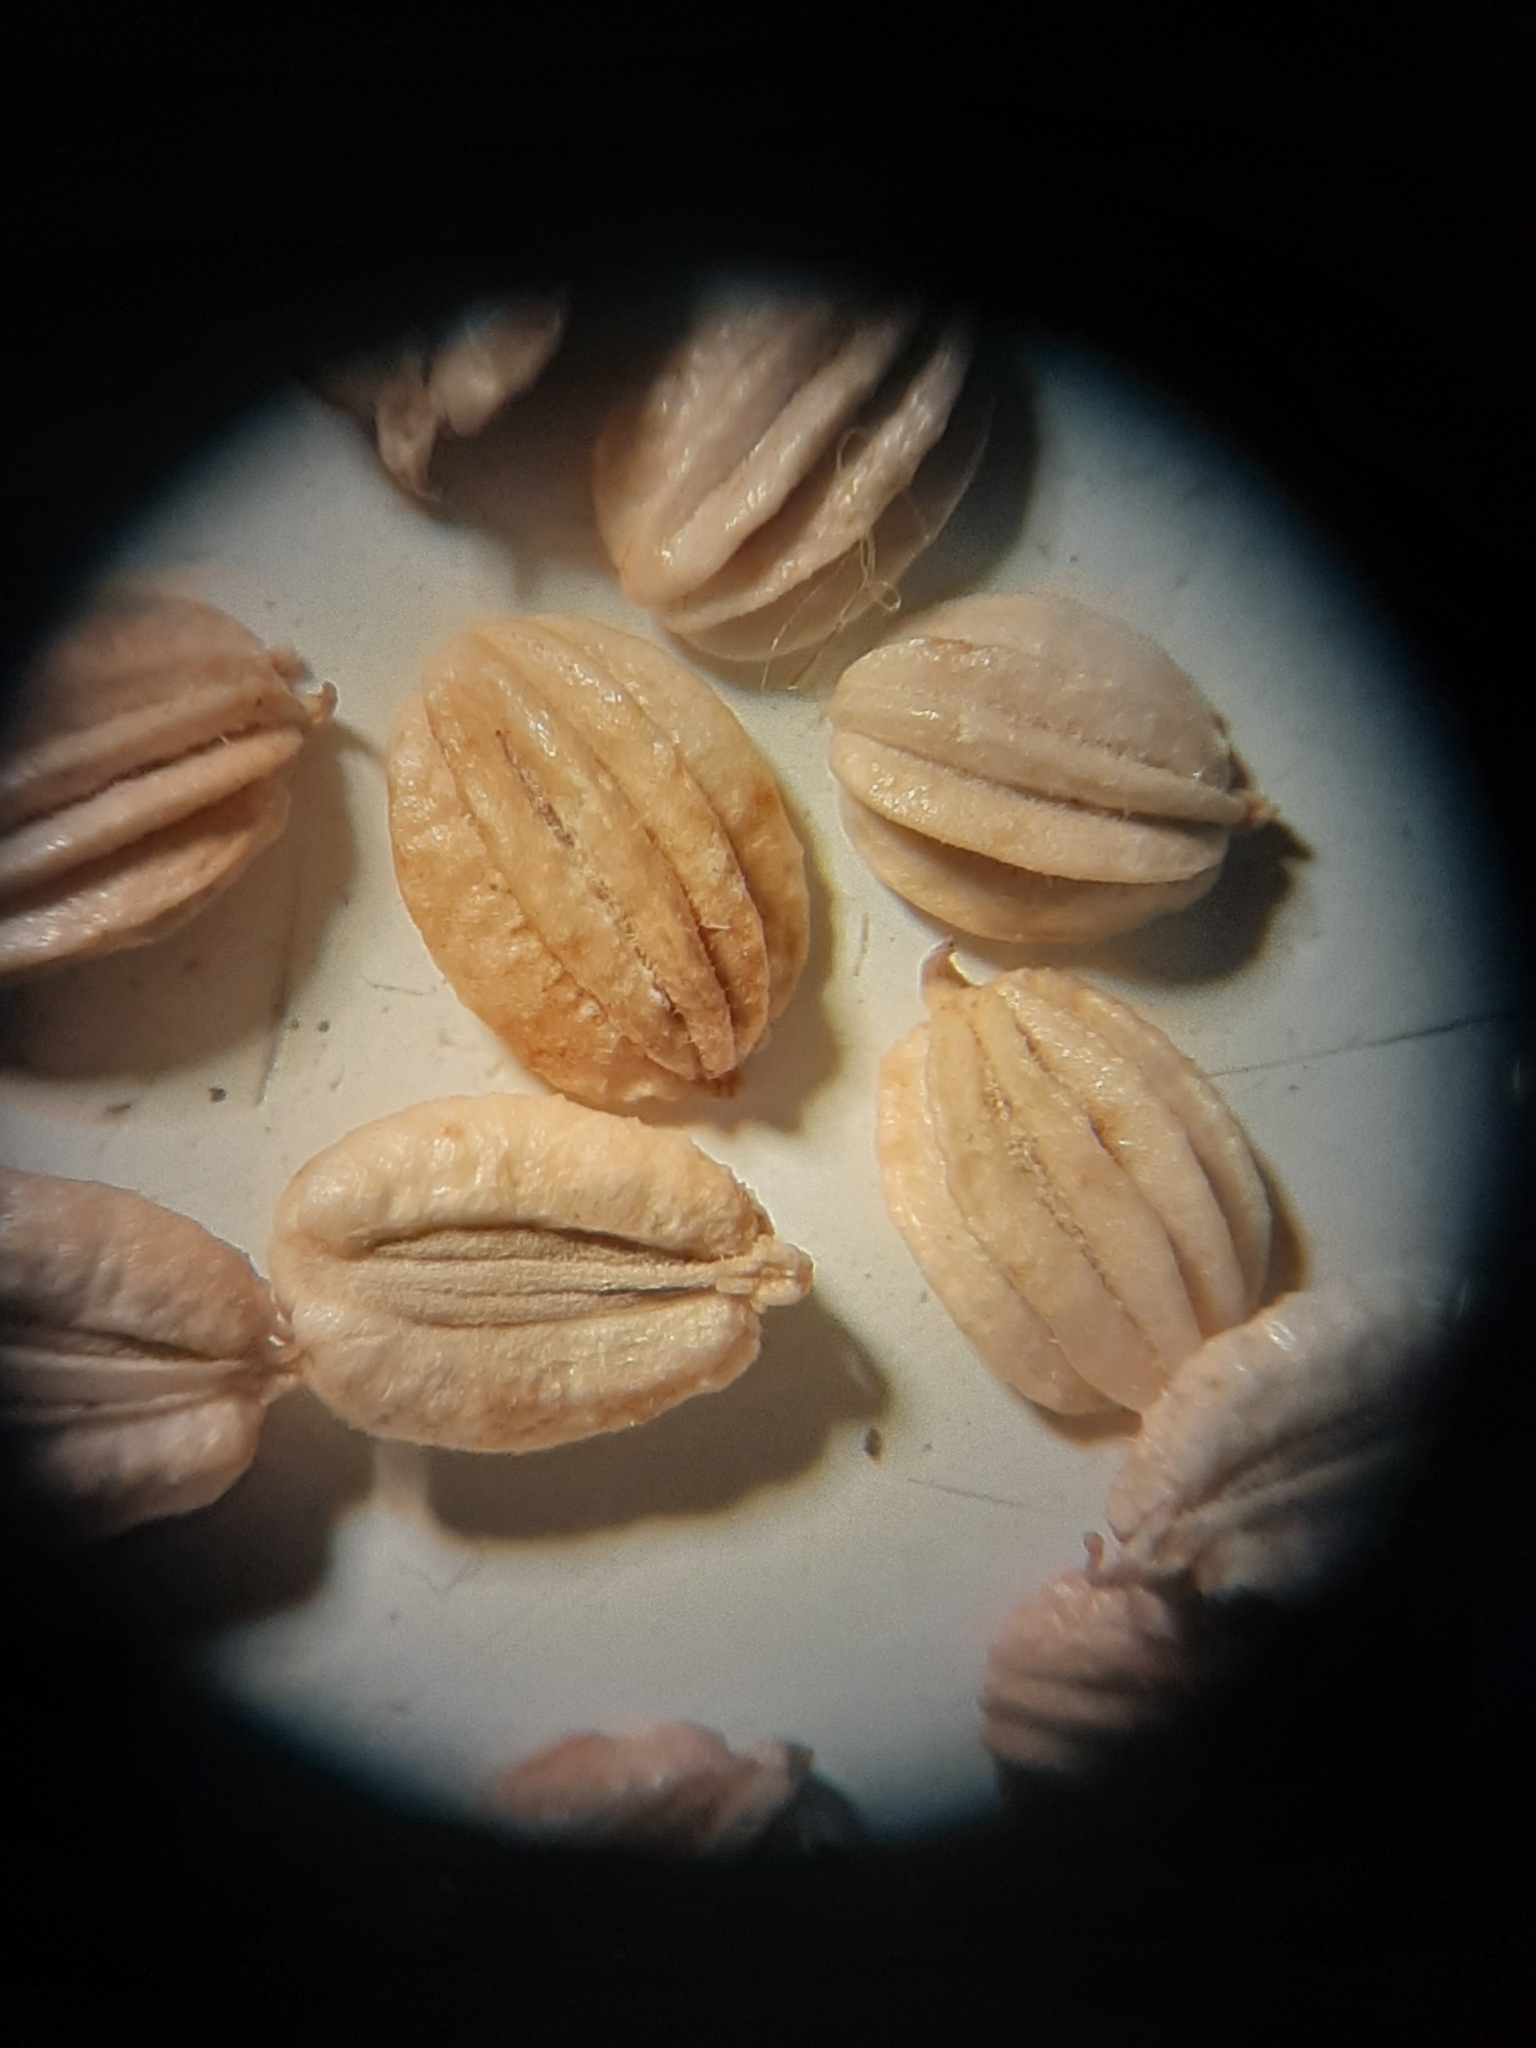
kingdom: Plantae
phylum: Tracheophyta
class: Magnoliopsida
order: Apiales
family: Apiaceae
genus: Trinia
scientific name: Trinia hispida
